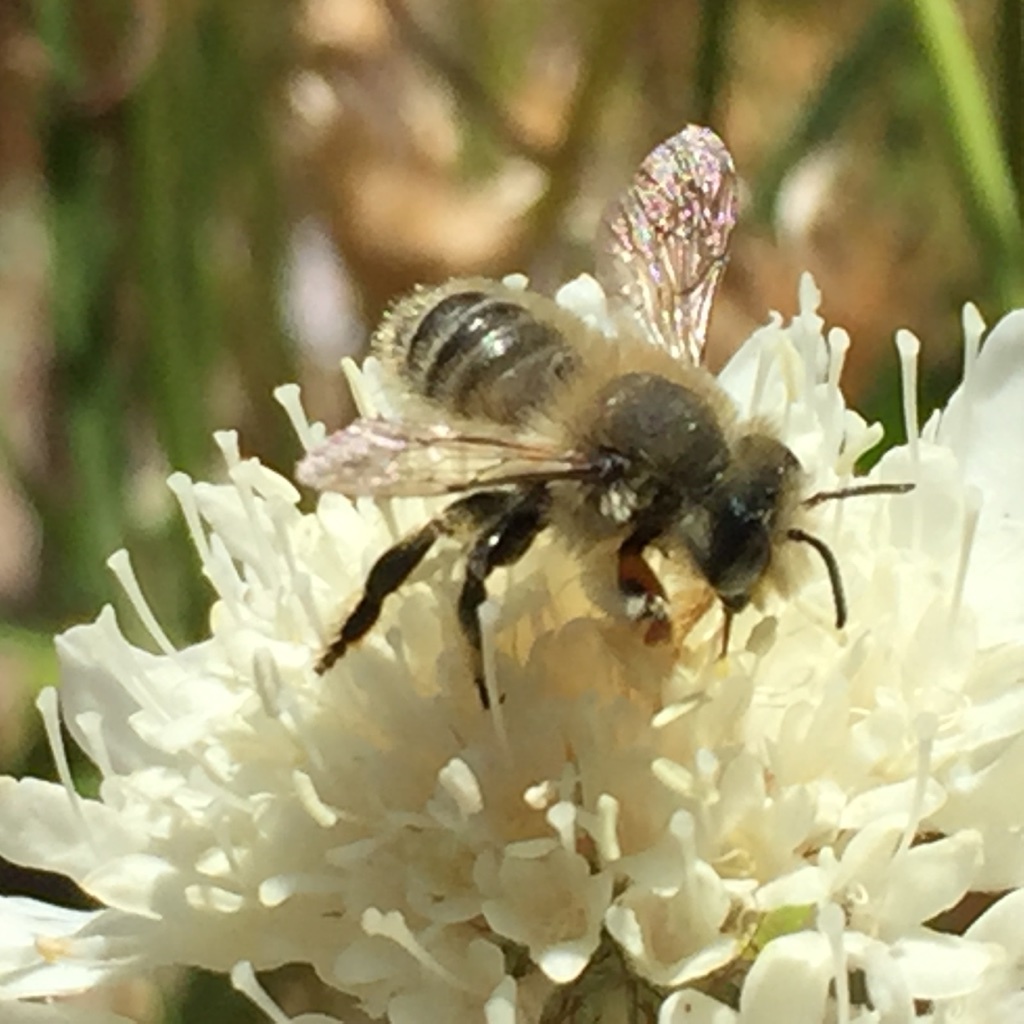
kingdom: Animalia
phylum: Arthropoda
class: Insecta
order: Hymenoptera
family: Megachilidae
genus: Megachile
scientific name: Megachile perihirta
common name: Western leafcutter
